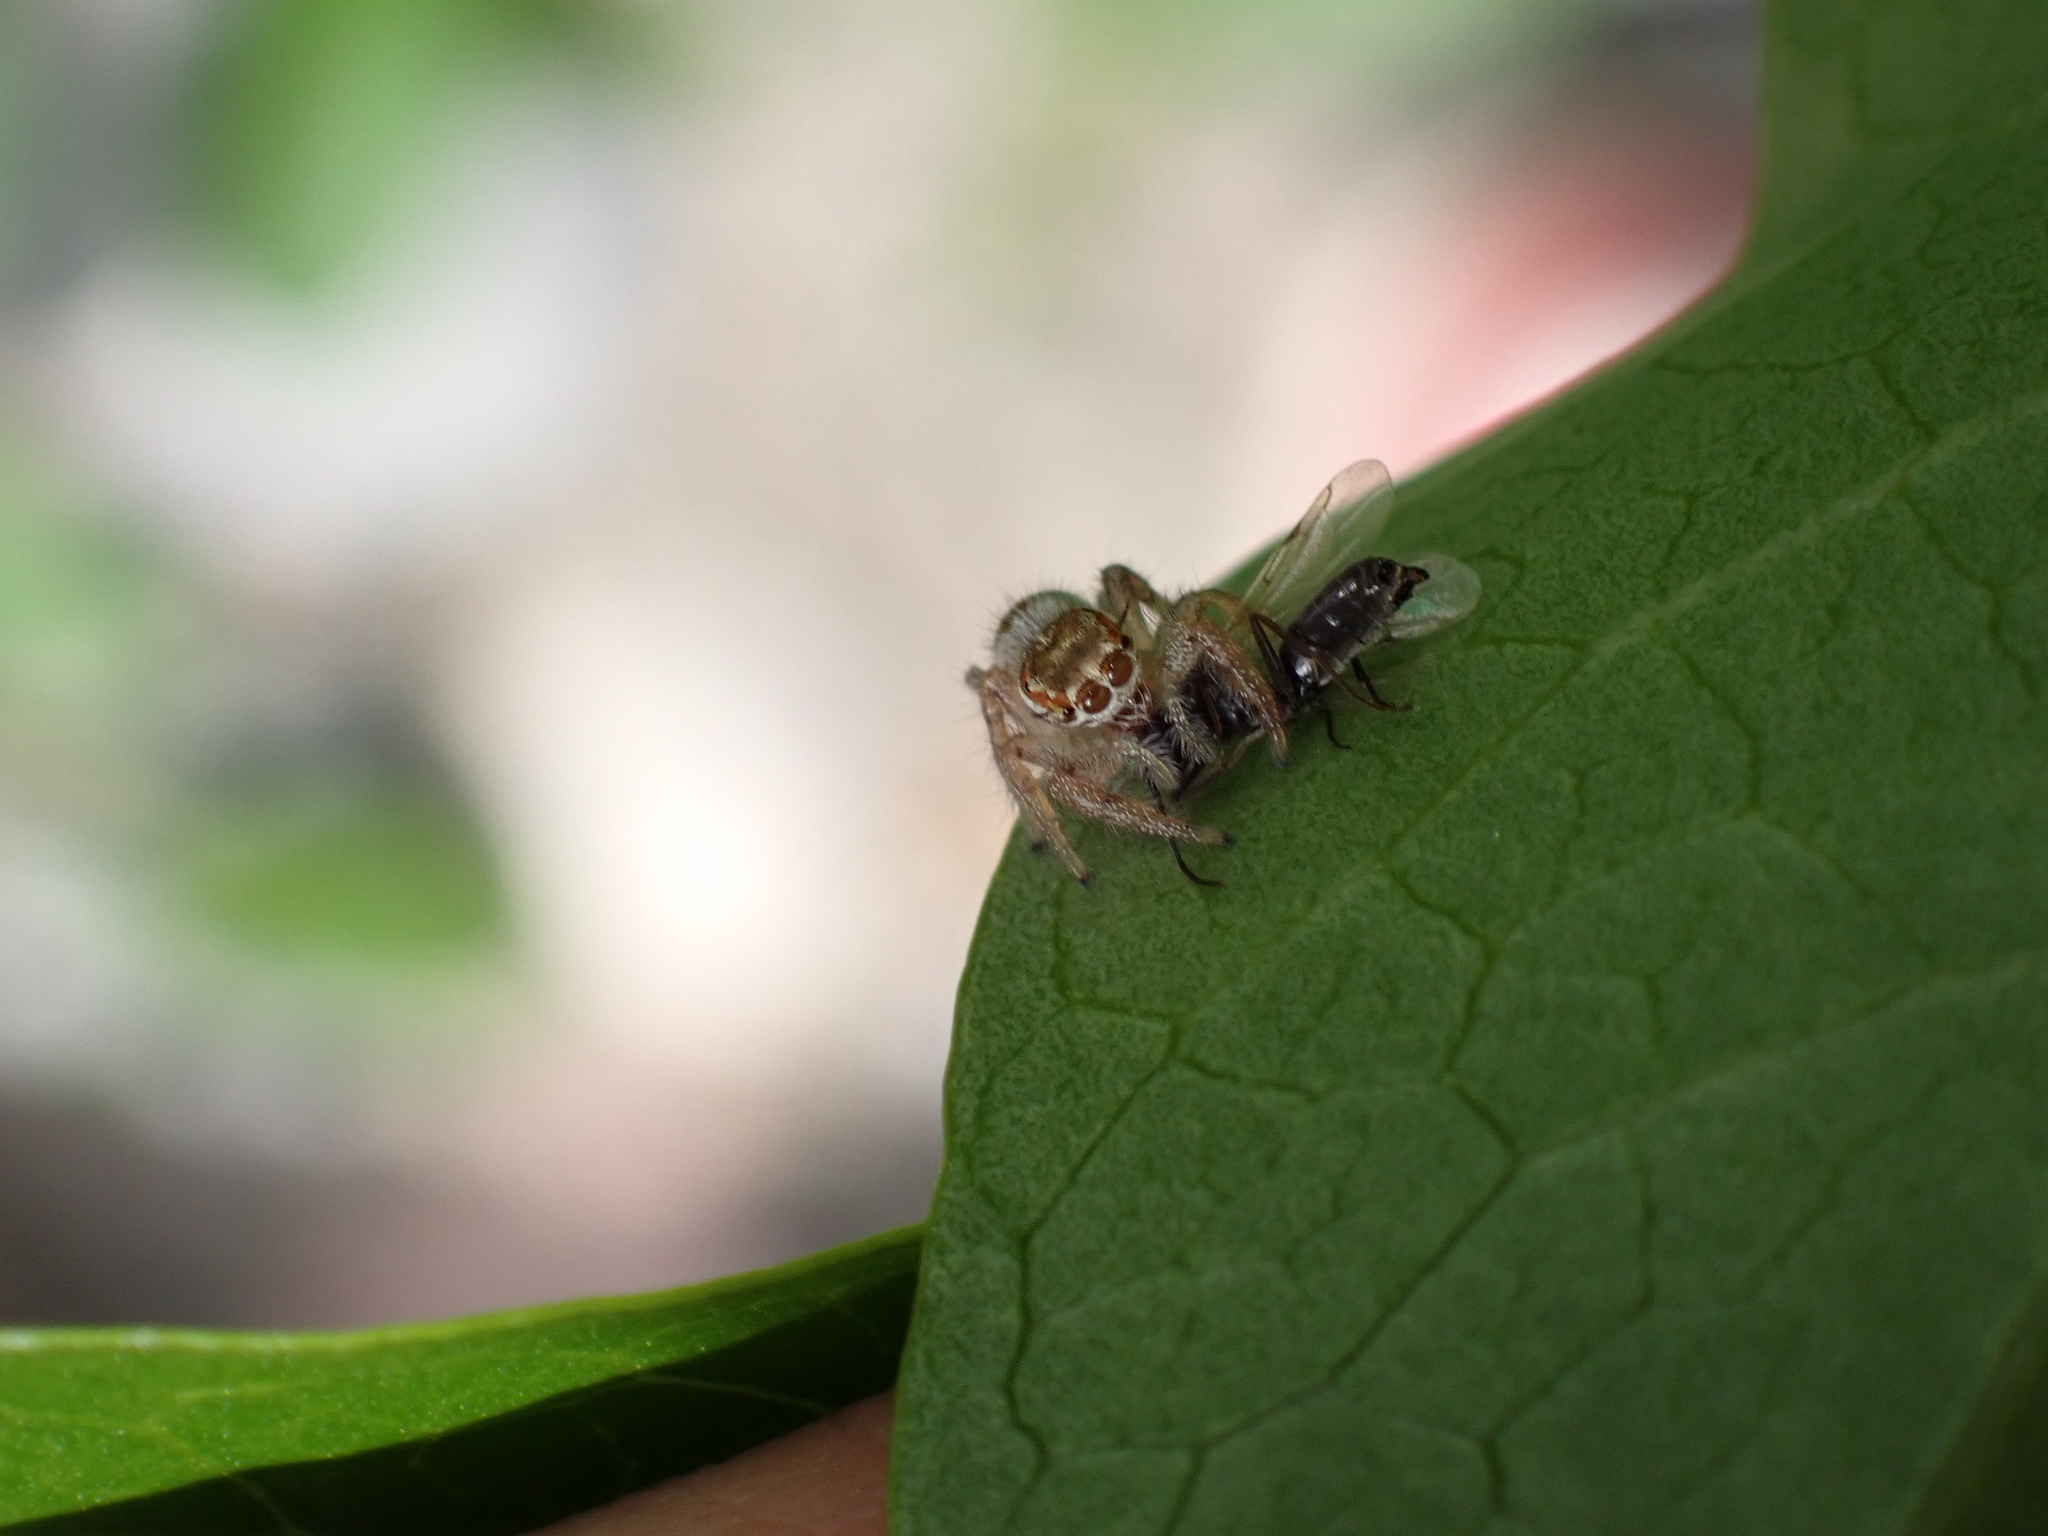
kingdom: Animalia
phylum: Arthropoda
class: Arachnida
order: Araneae
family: Salticidae
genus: Thyene
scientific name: Thyene imperialis
